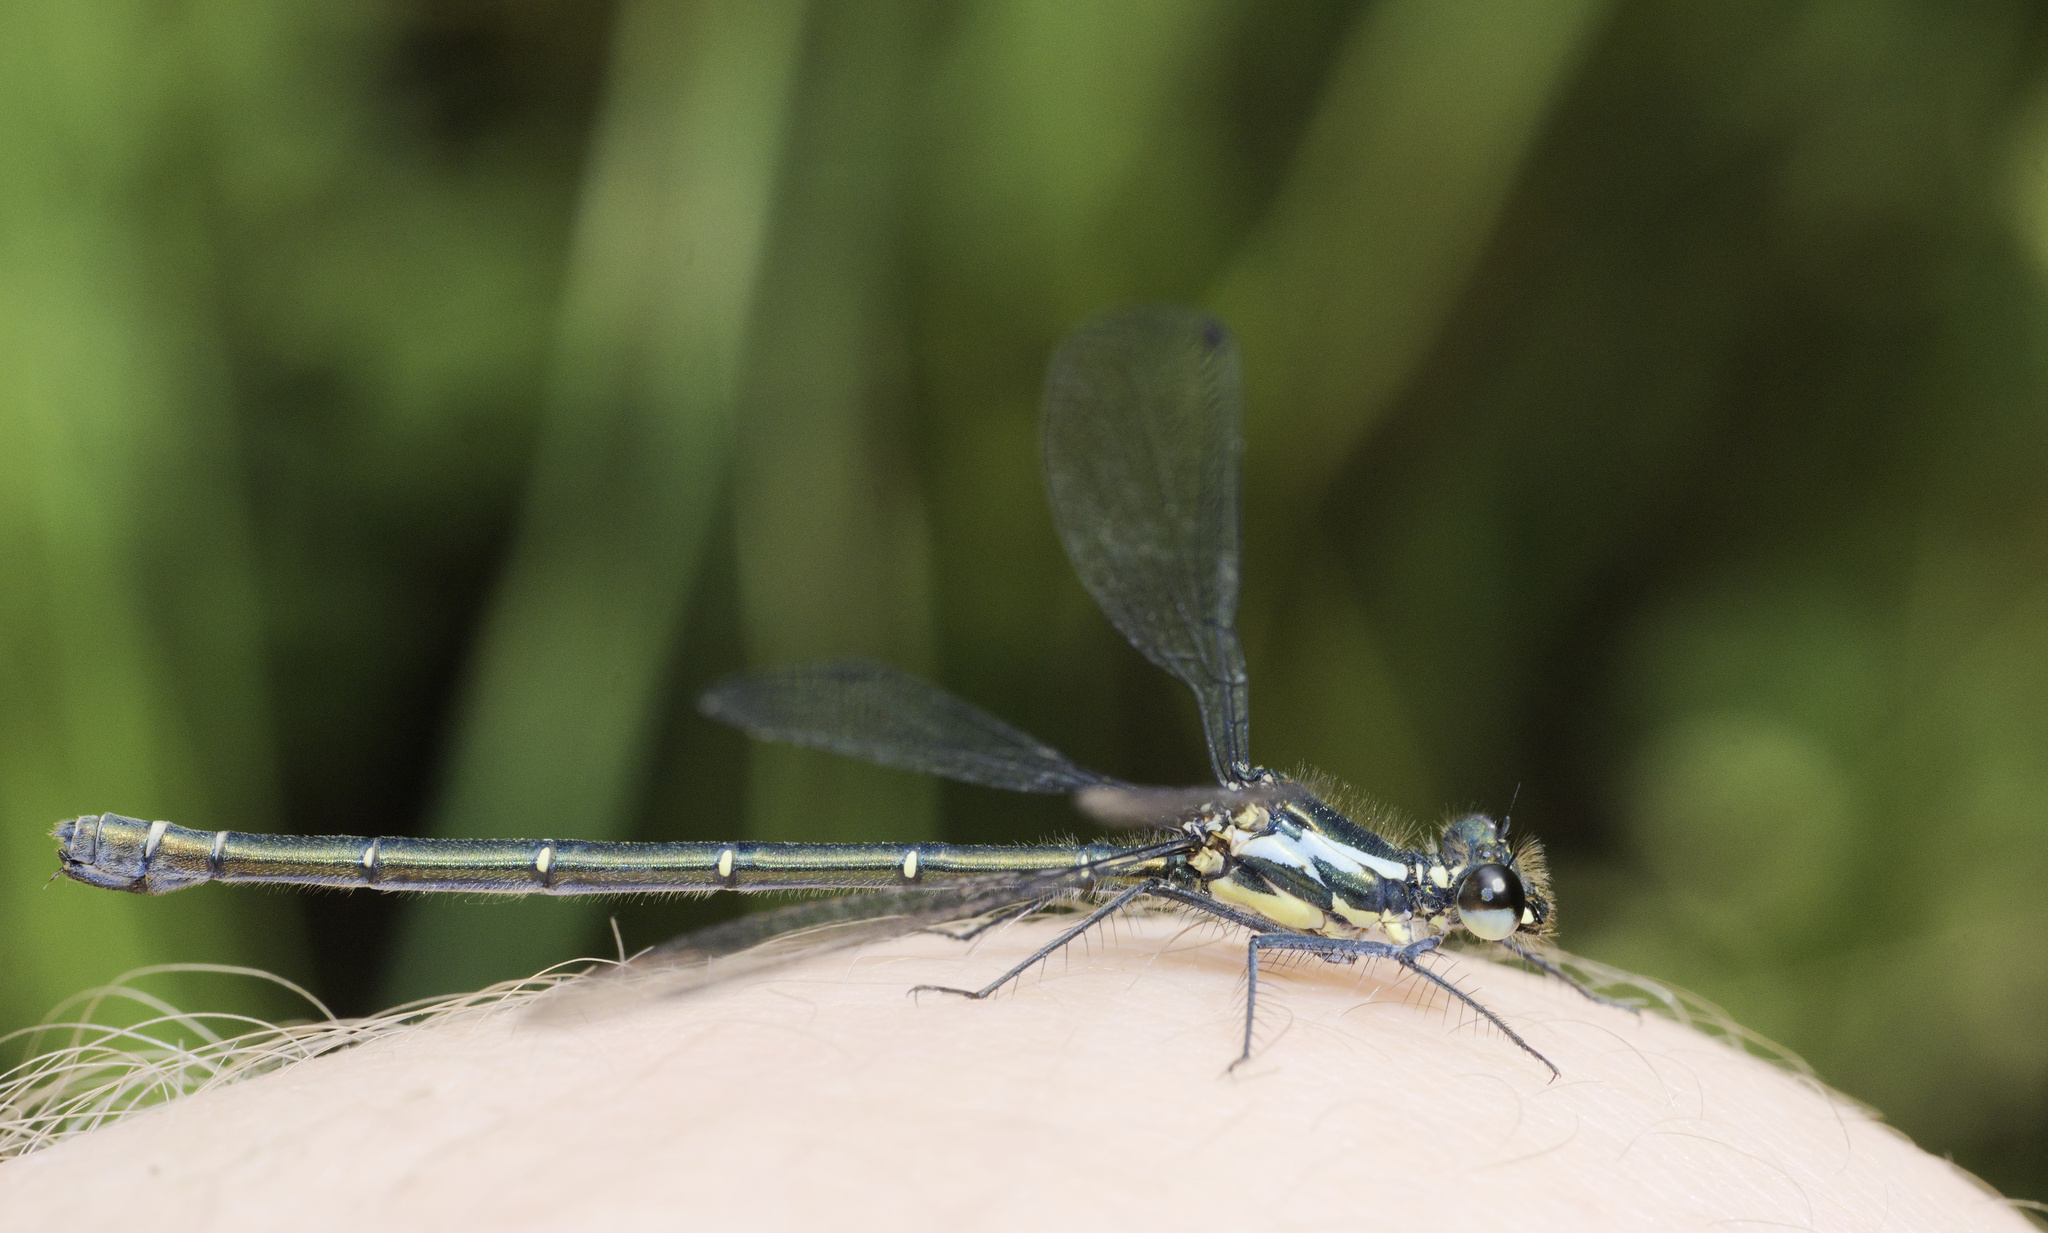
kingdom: Animalia
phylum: Arthropoda
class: Insecta
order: Odonata
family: Argiolestidae
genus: Austroargiolestes
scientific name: Austroargiolestes icteromelas
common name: Common flatwing
